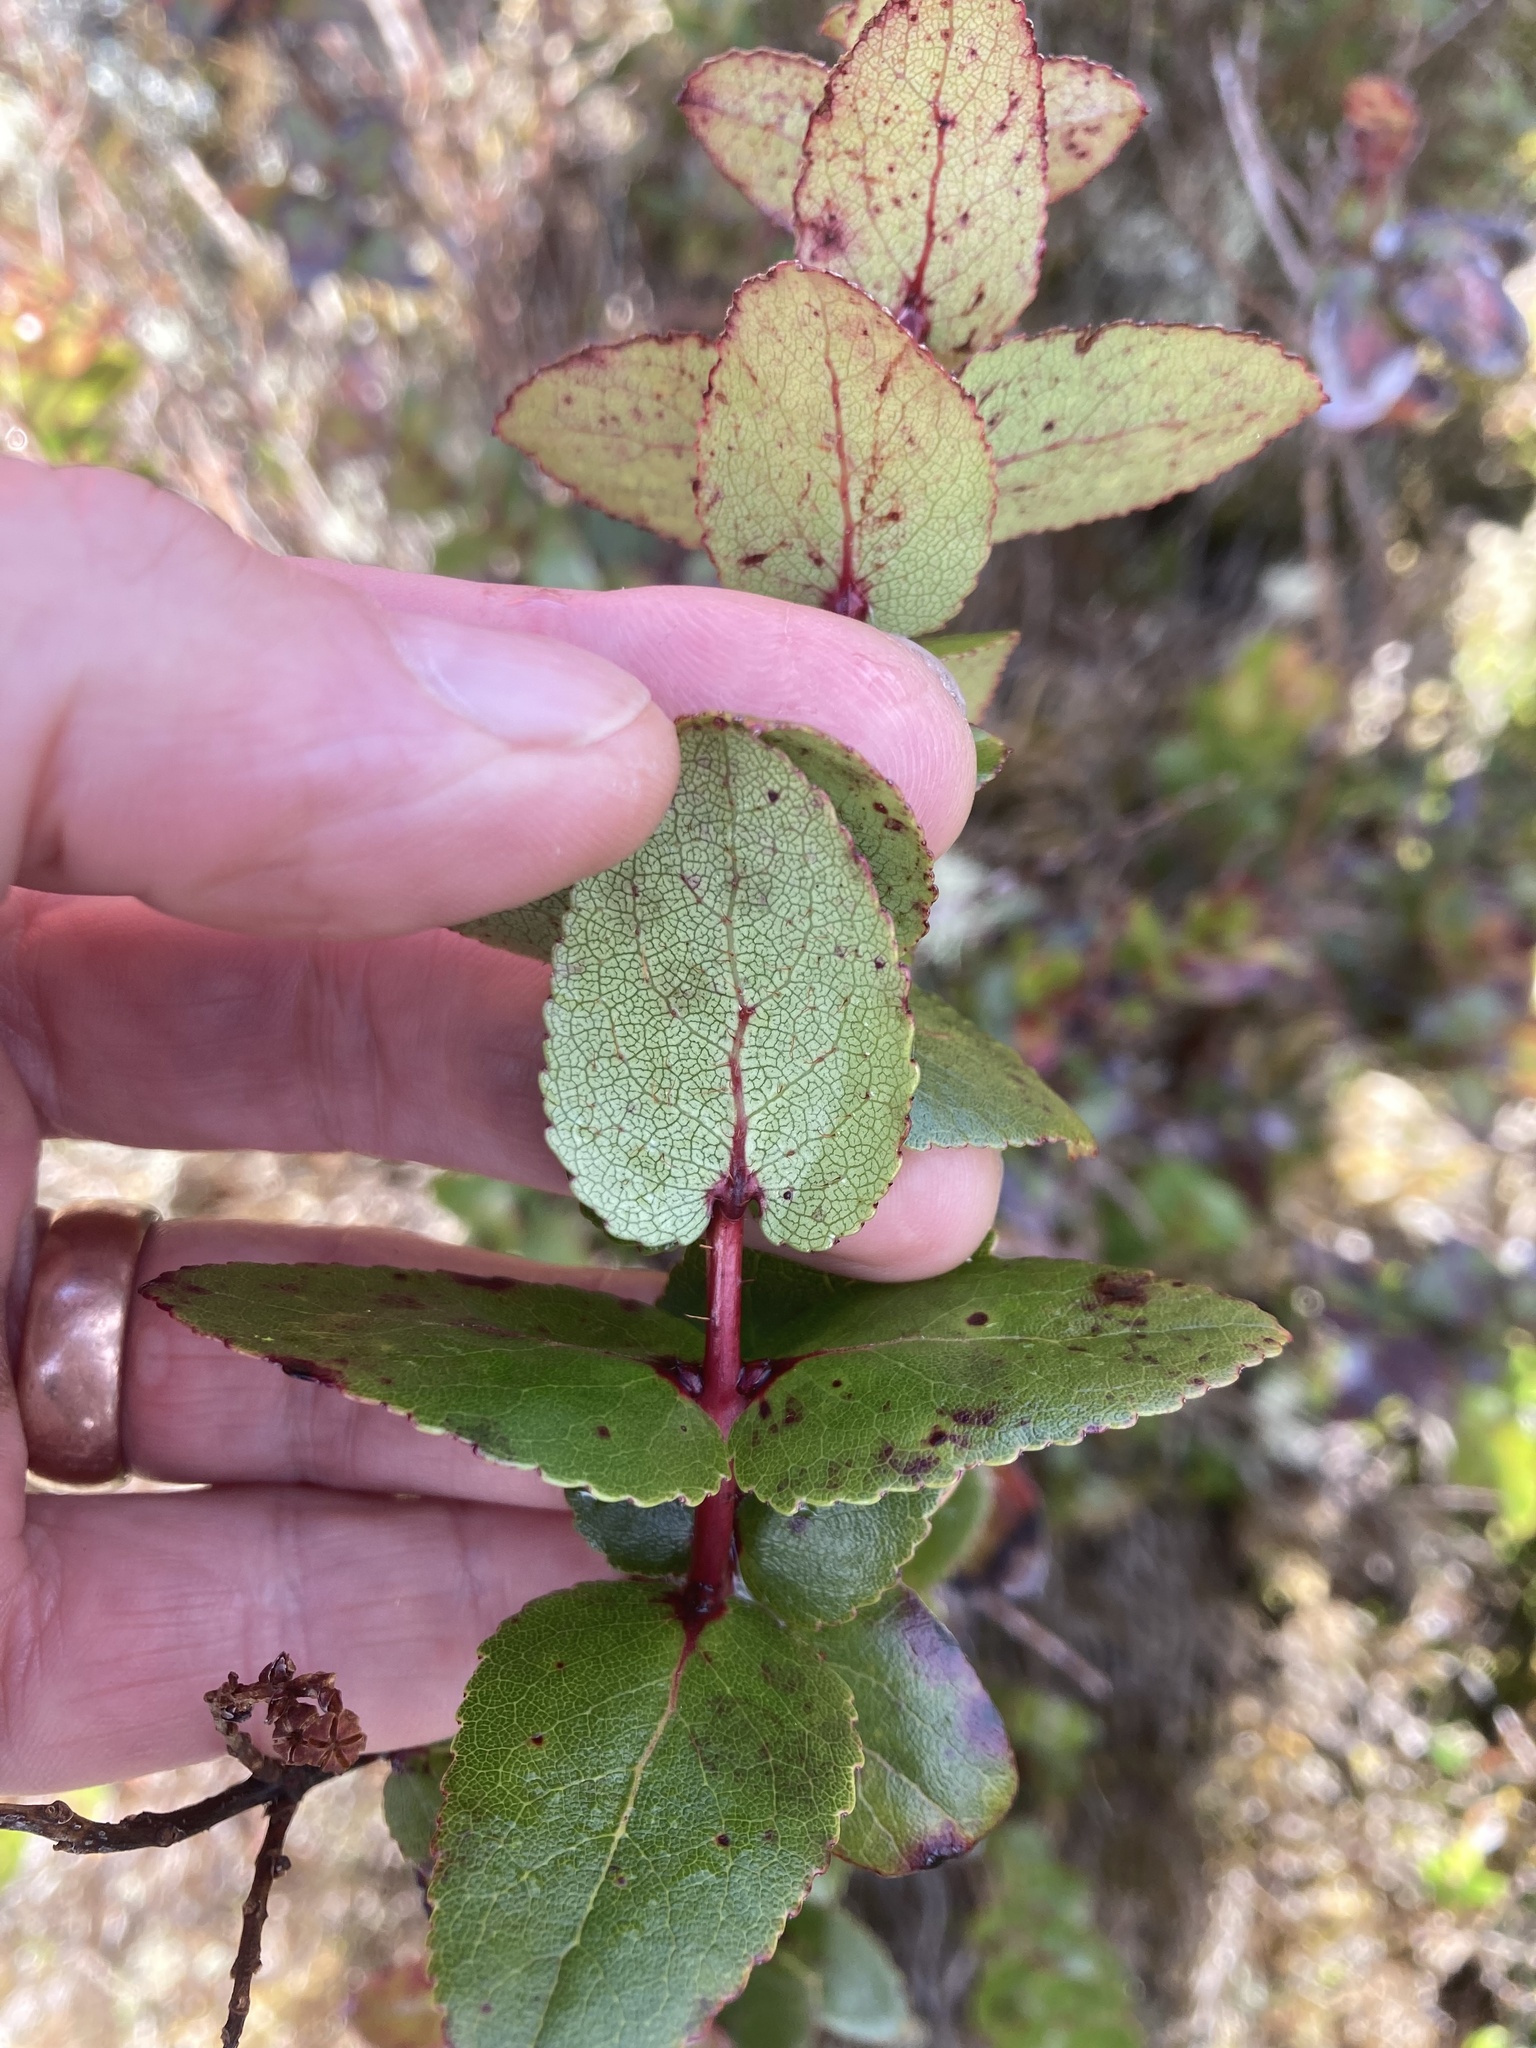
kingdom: Plantae
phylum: Tracheophyta
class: Magnoliopsida
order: Ericales
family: Ericaceae
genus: Gaultheria
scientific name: Gaultheria oppositifolia
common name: Snowberry
